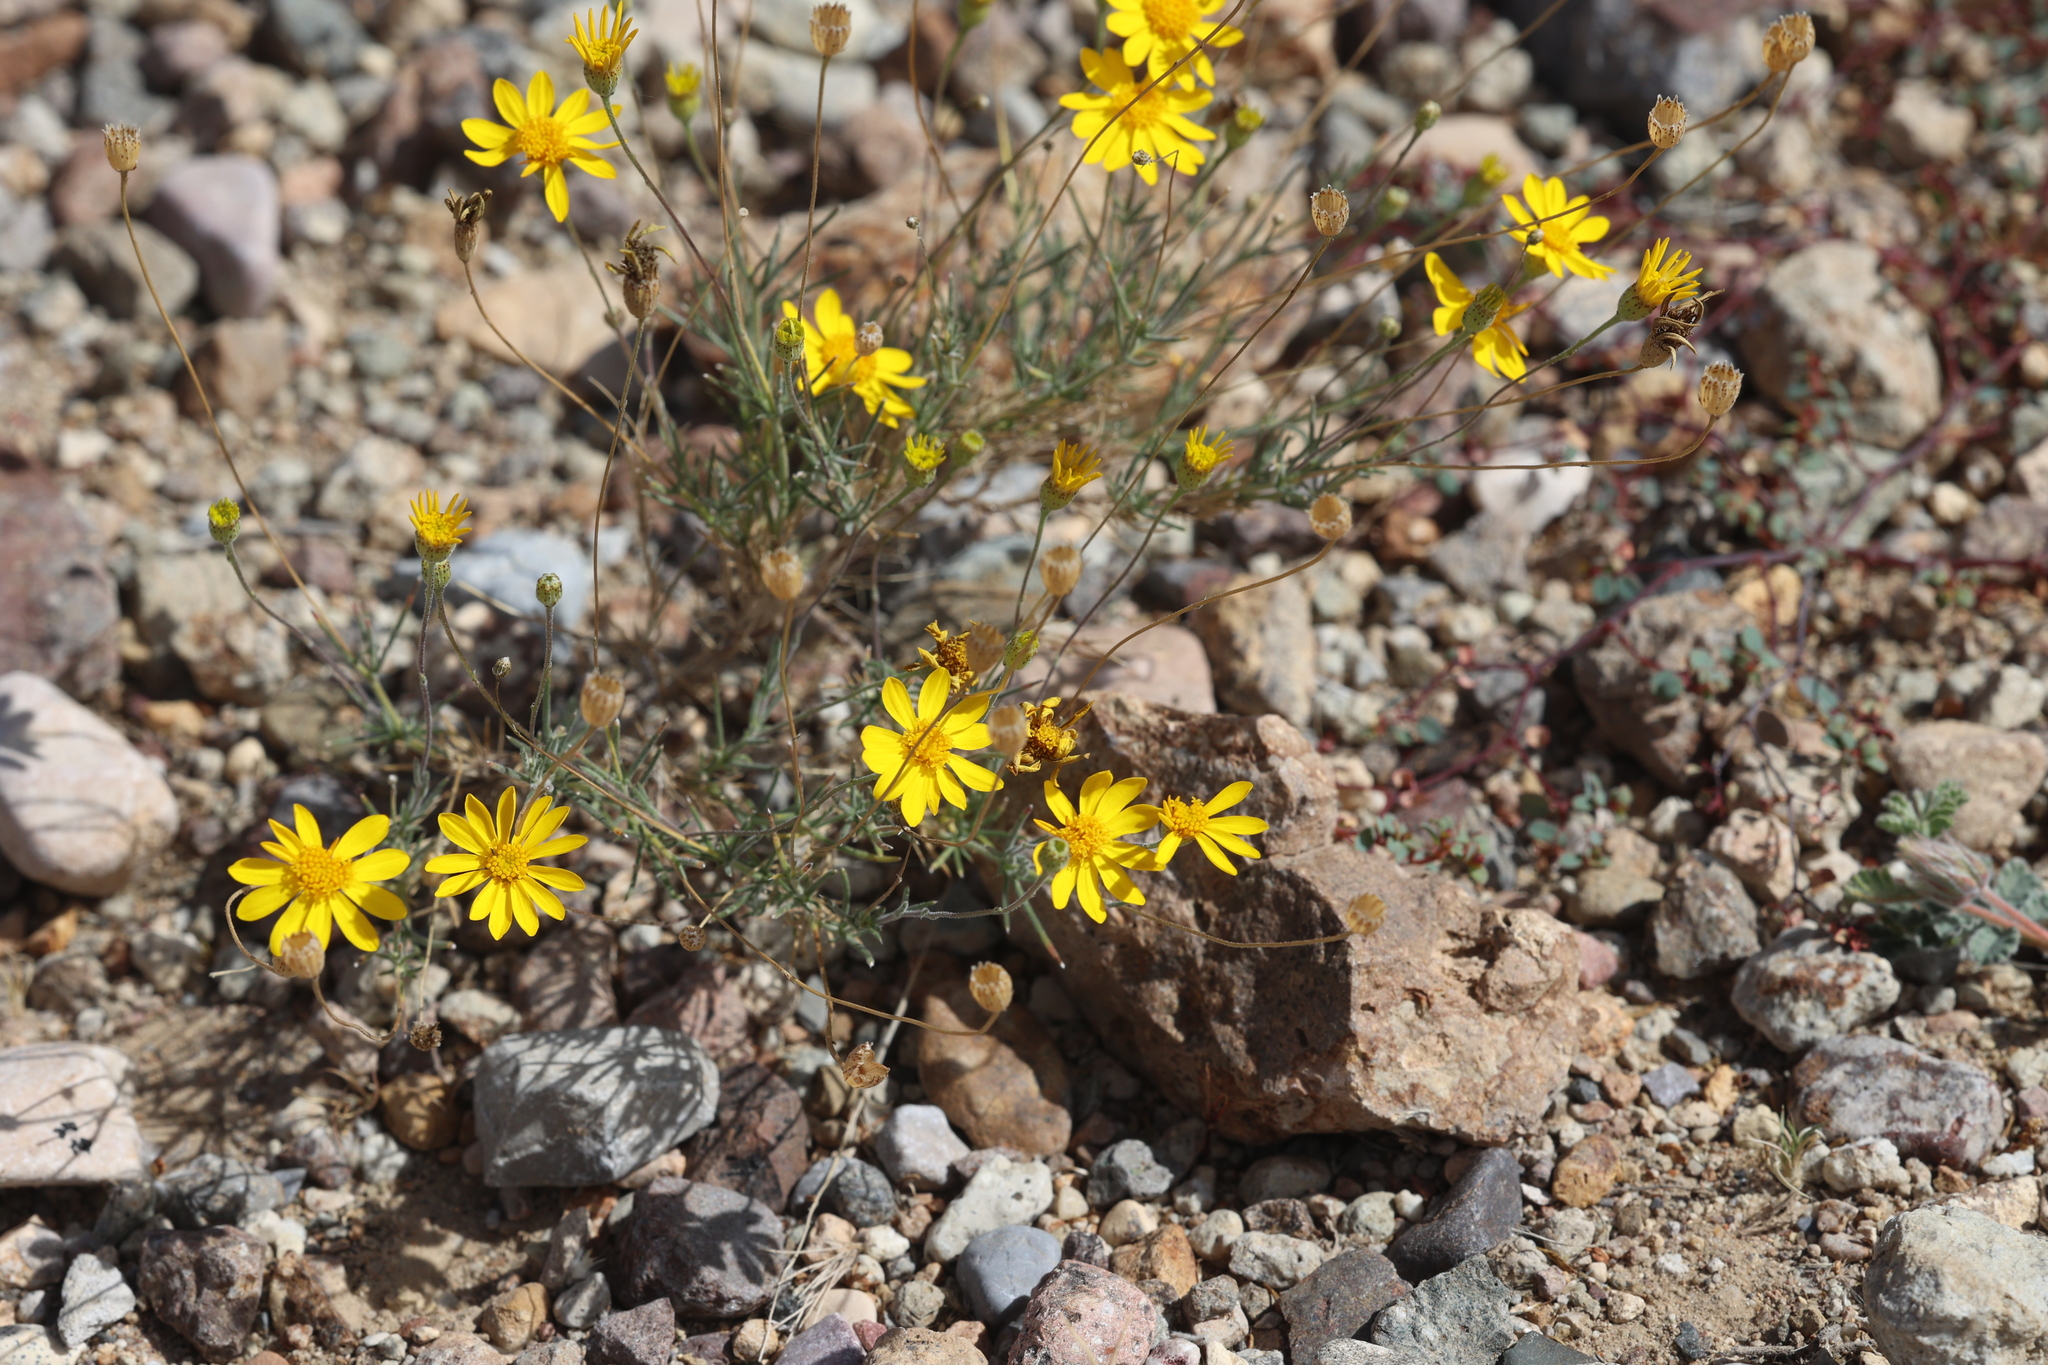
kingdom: Plantae
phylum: Tracheophyta
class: Magnoliopsida
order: Asterales
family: Asteraceae
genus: Thymophylla
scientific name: Thymophylla pentachaeta
